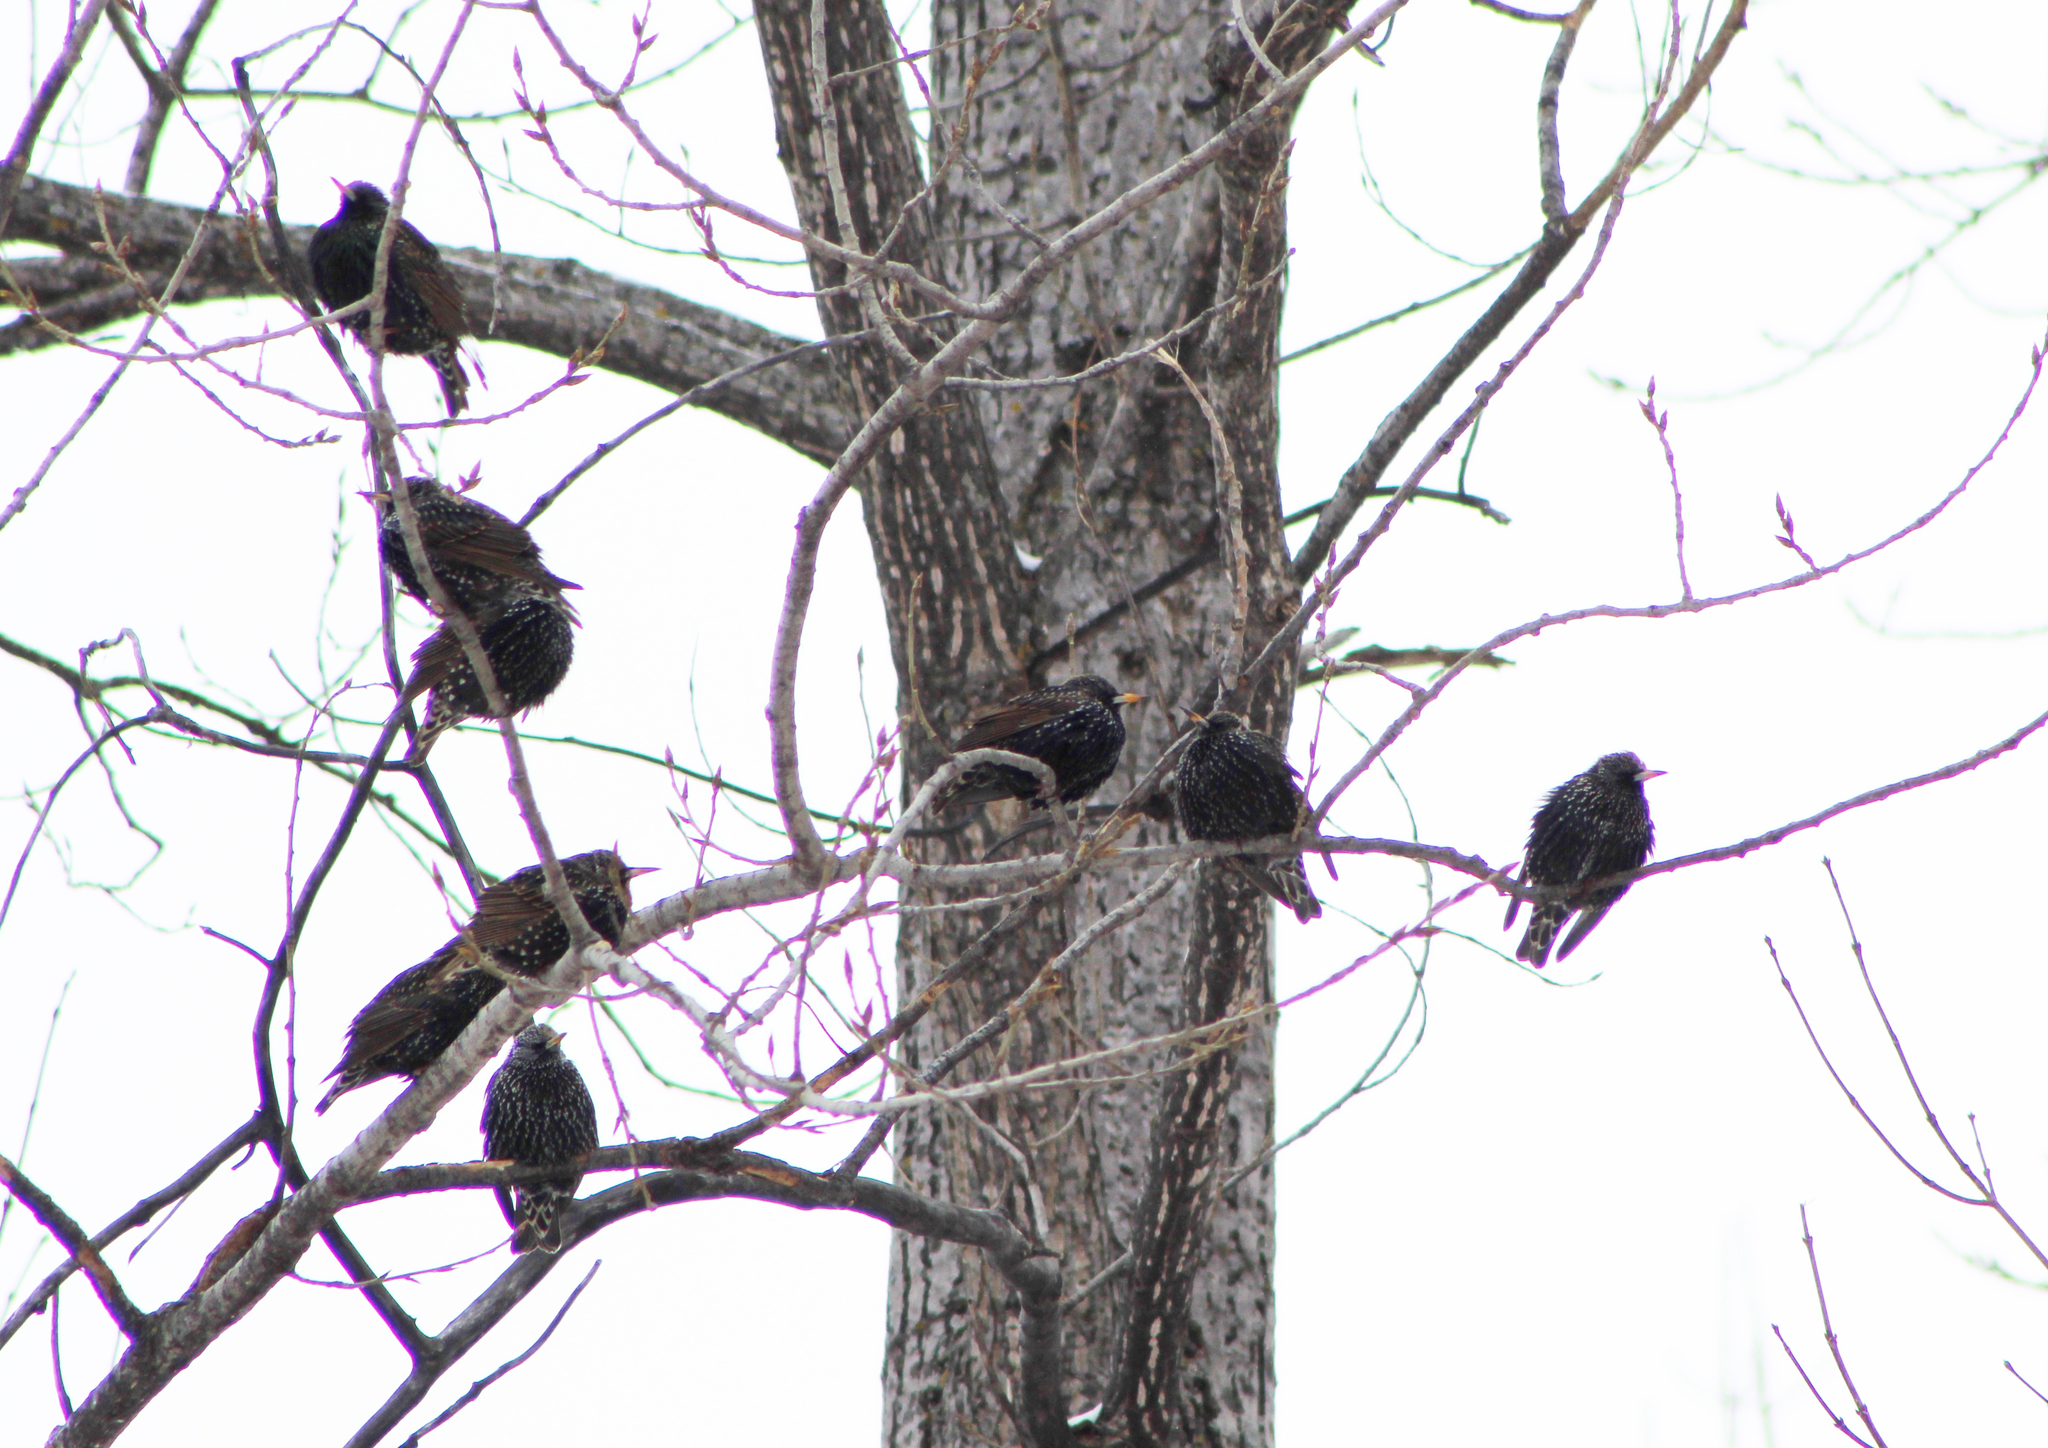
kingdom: Animalia
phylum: Chordata
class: Aves
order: Passeriformes
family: Sturnidae
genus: Sturnus
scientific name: Sturnus vulgaris
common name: Common starling
